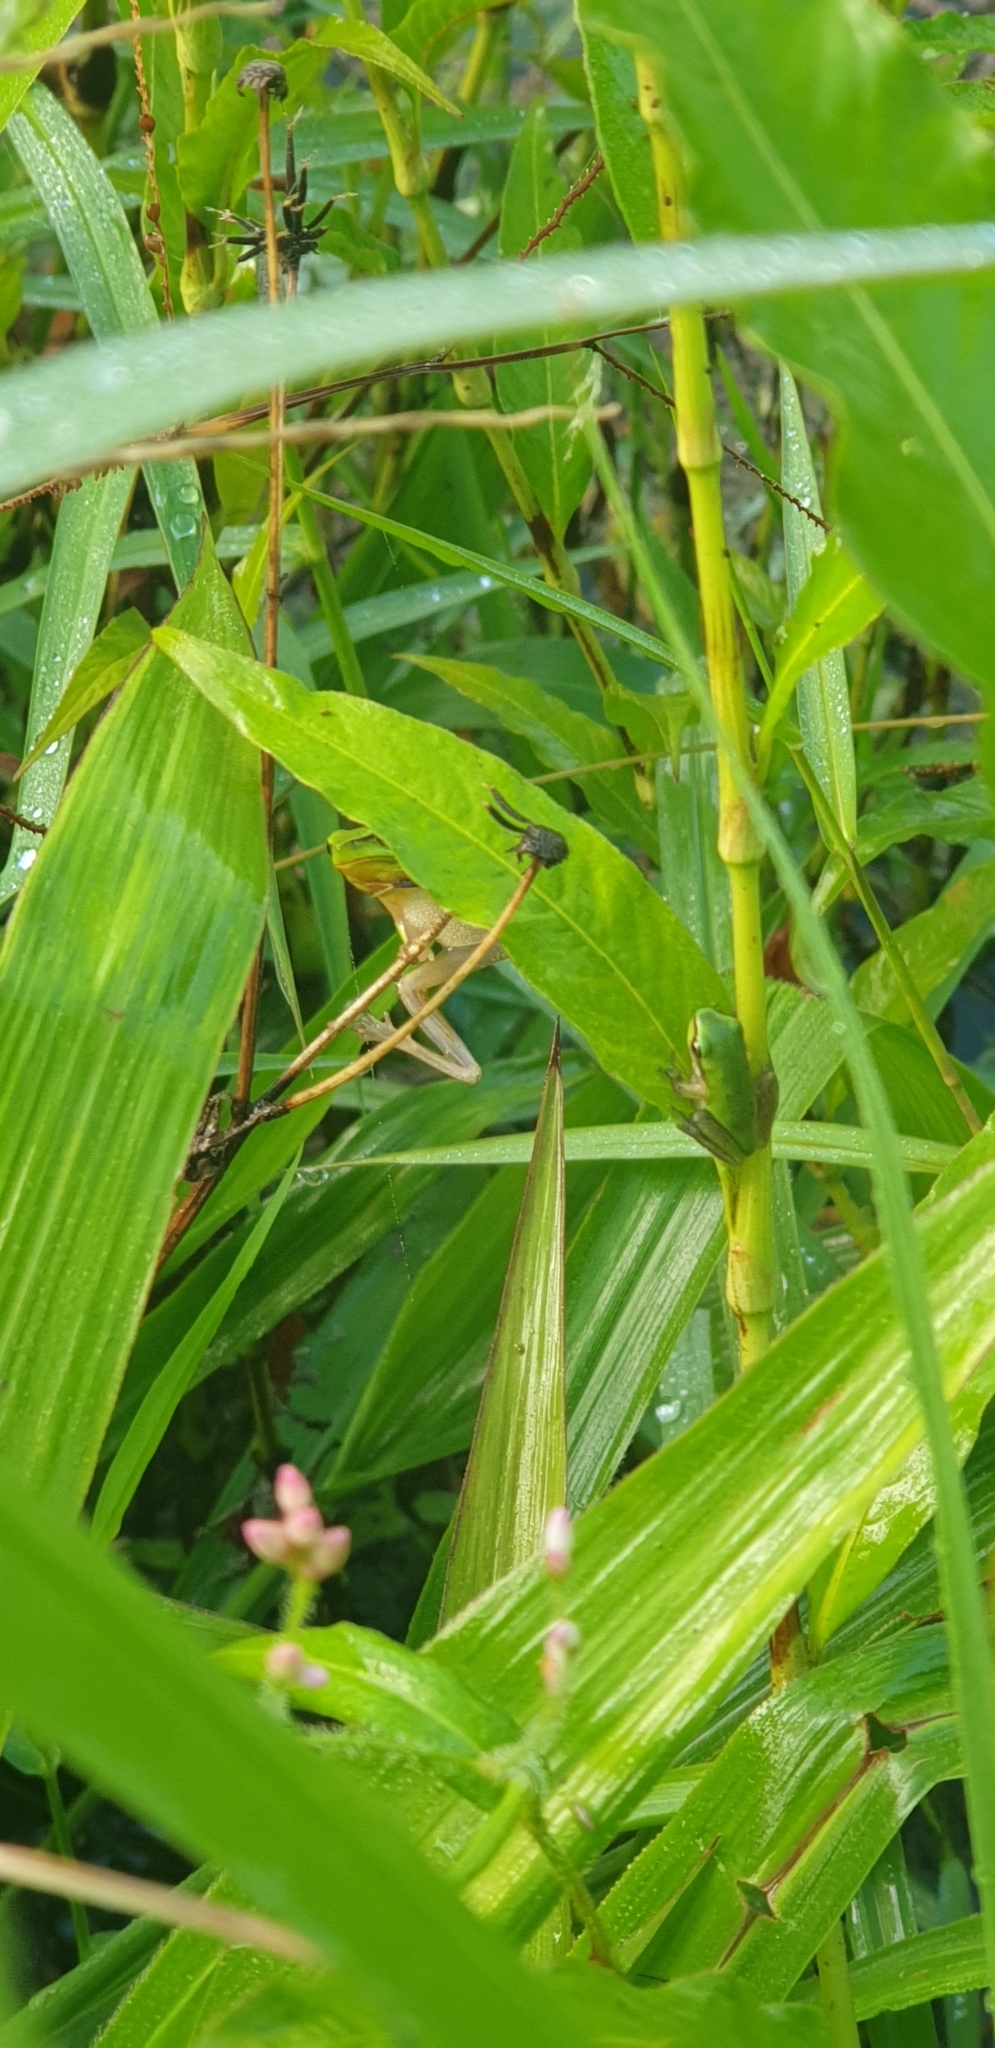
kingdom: Animalia
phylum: Chordata
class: Amphibia
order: Anura
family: Pelodryadidae
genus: Litoria
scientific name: Litoria fallax
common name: Eastern dwarf treefrog
